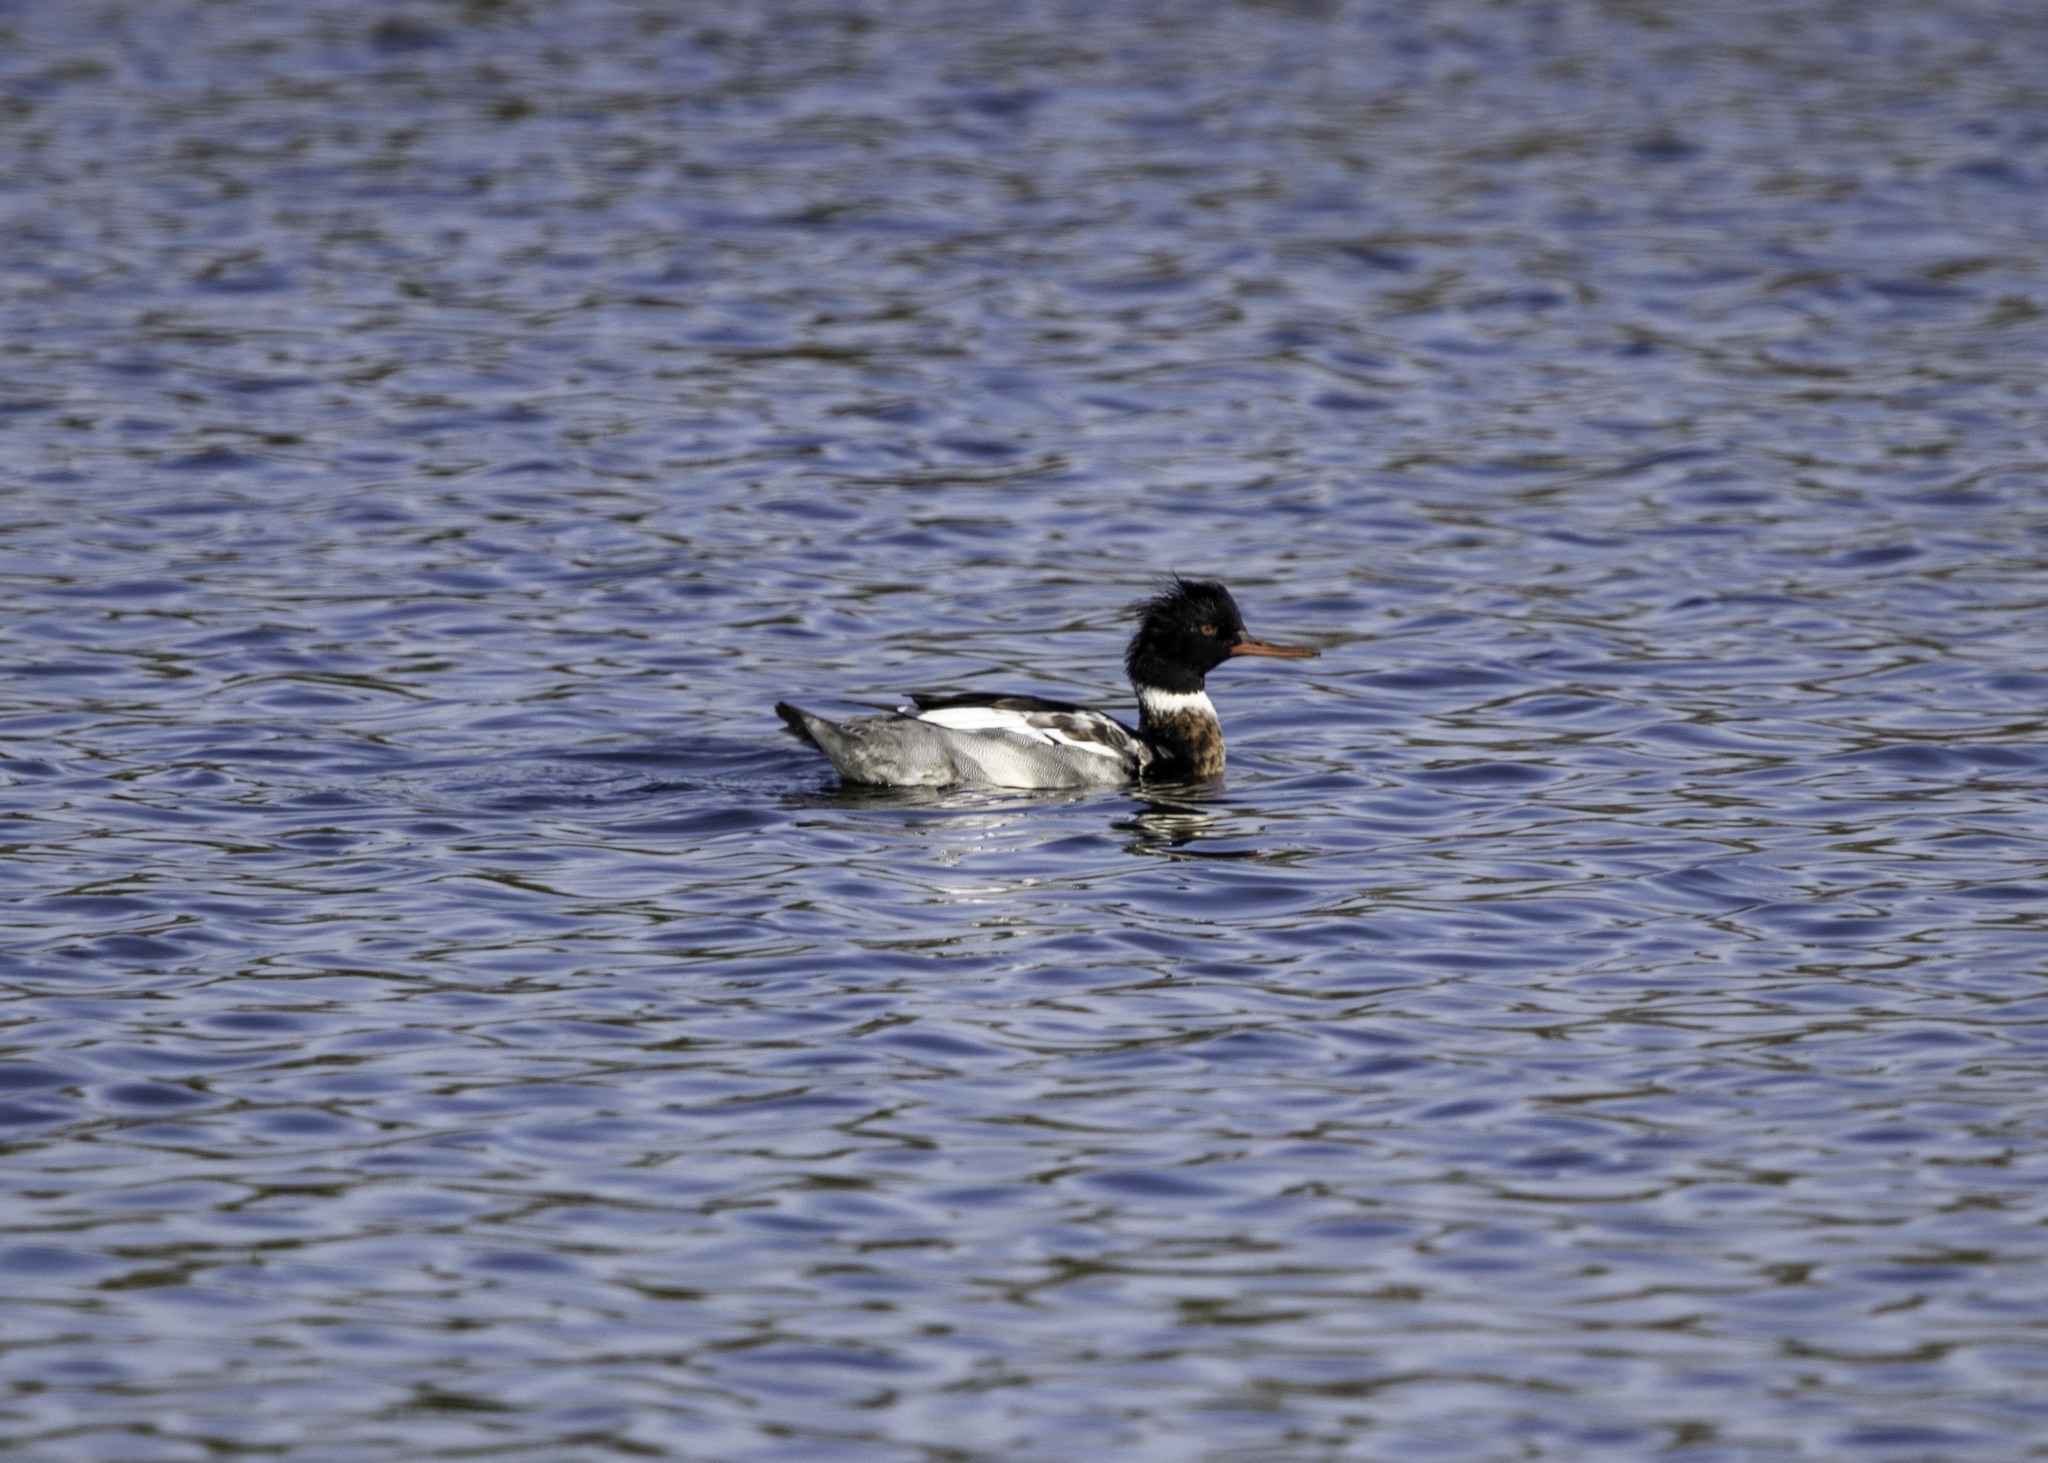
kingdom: Animalia
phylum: Chordata
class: Aves
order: Anseriformes
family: Anatidae
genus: Mergus
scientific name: Mergus serrator
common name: Red-breasted merganser
